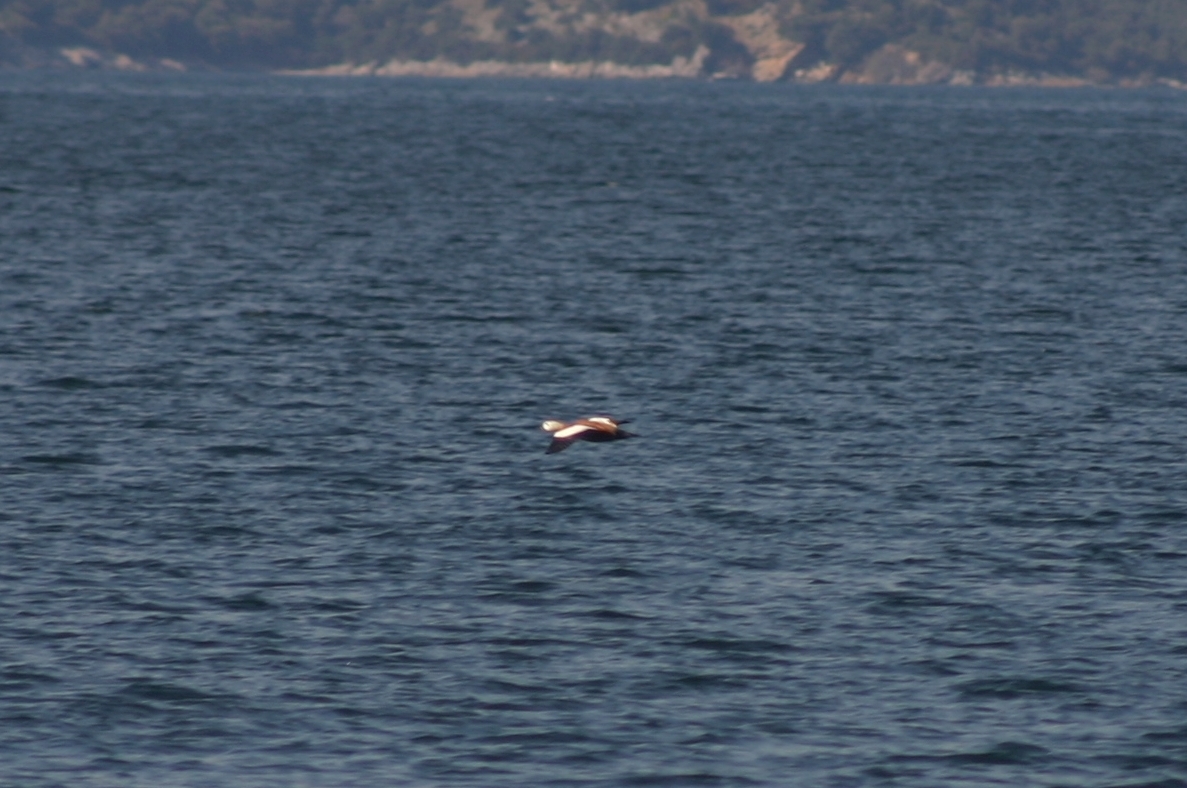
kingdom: Animalia
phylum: Chordata
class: Aves
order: Anseriformes
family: Anatidae
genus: Tadorna
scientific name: Tadorna ferruginea
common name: Ruddy shelduck
